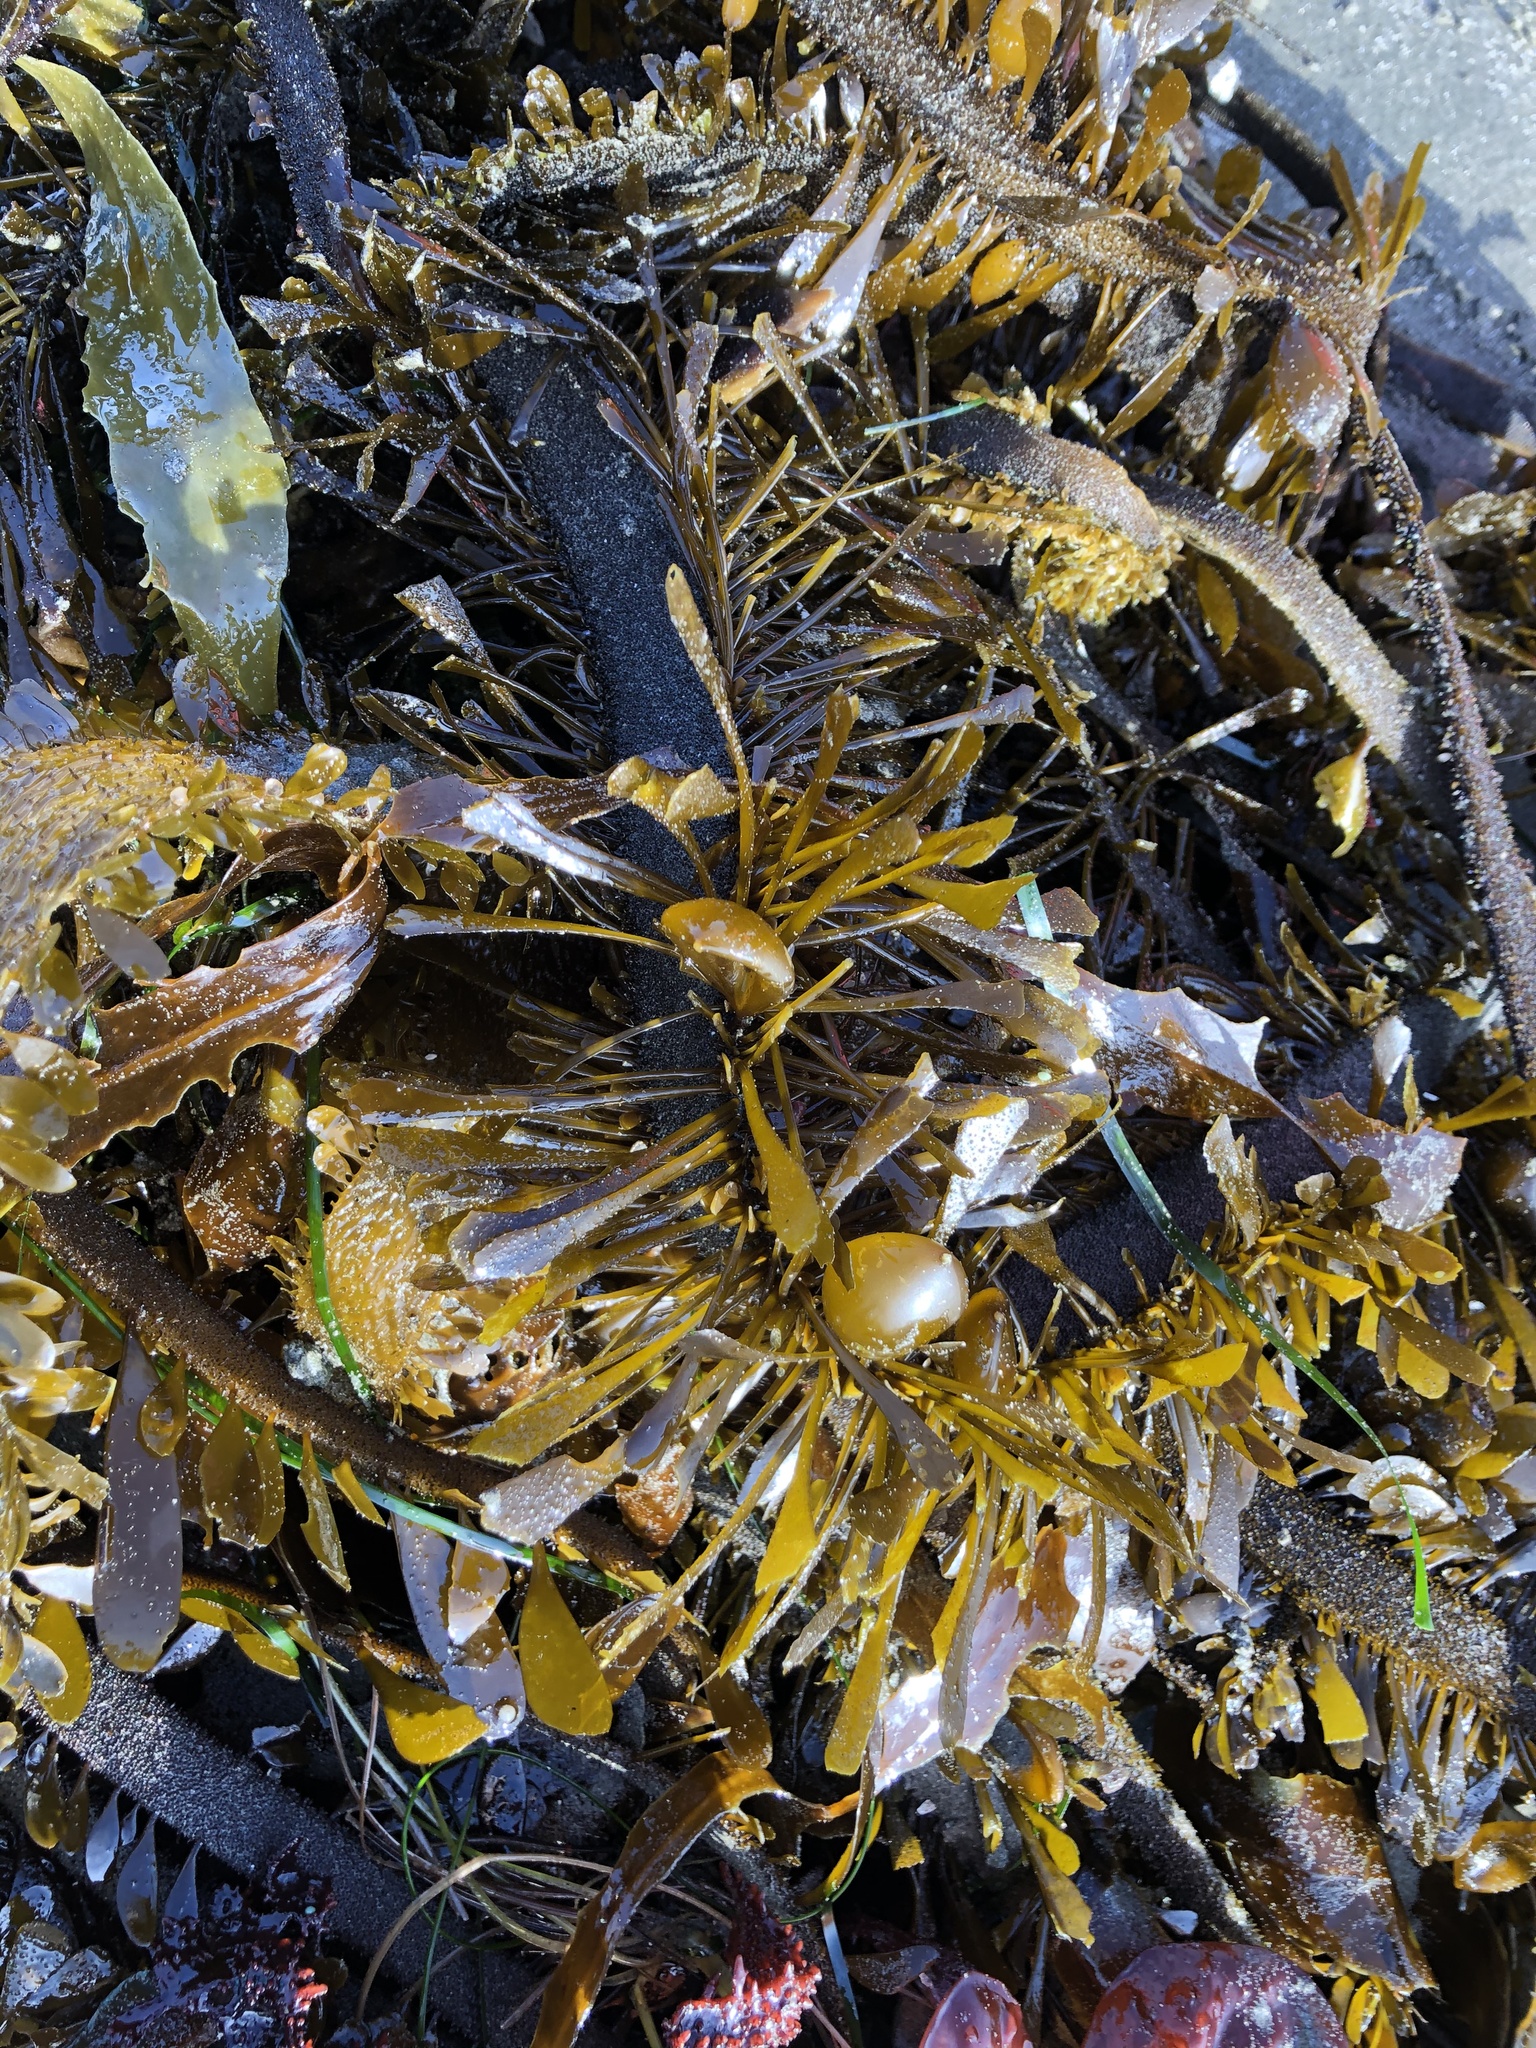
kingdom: Chromista
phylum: Ochrophyta
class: Phaeophyceae
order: Laminariales
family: Lessoniaceae
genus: Egregia
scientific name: Egregia menziesii
